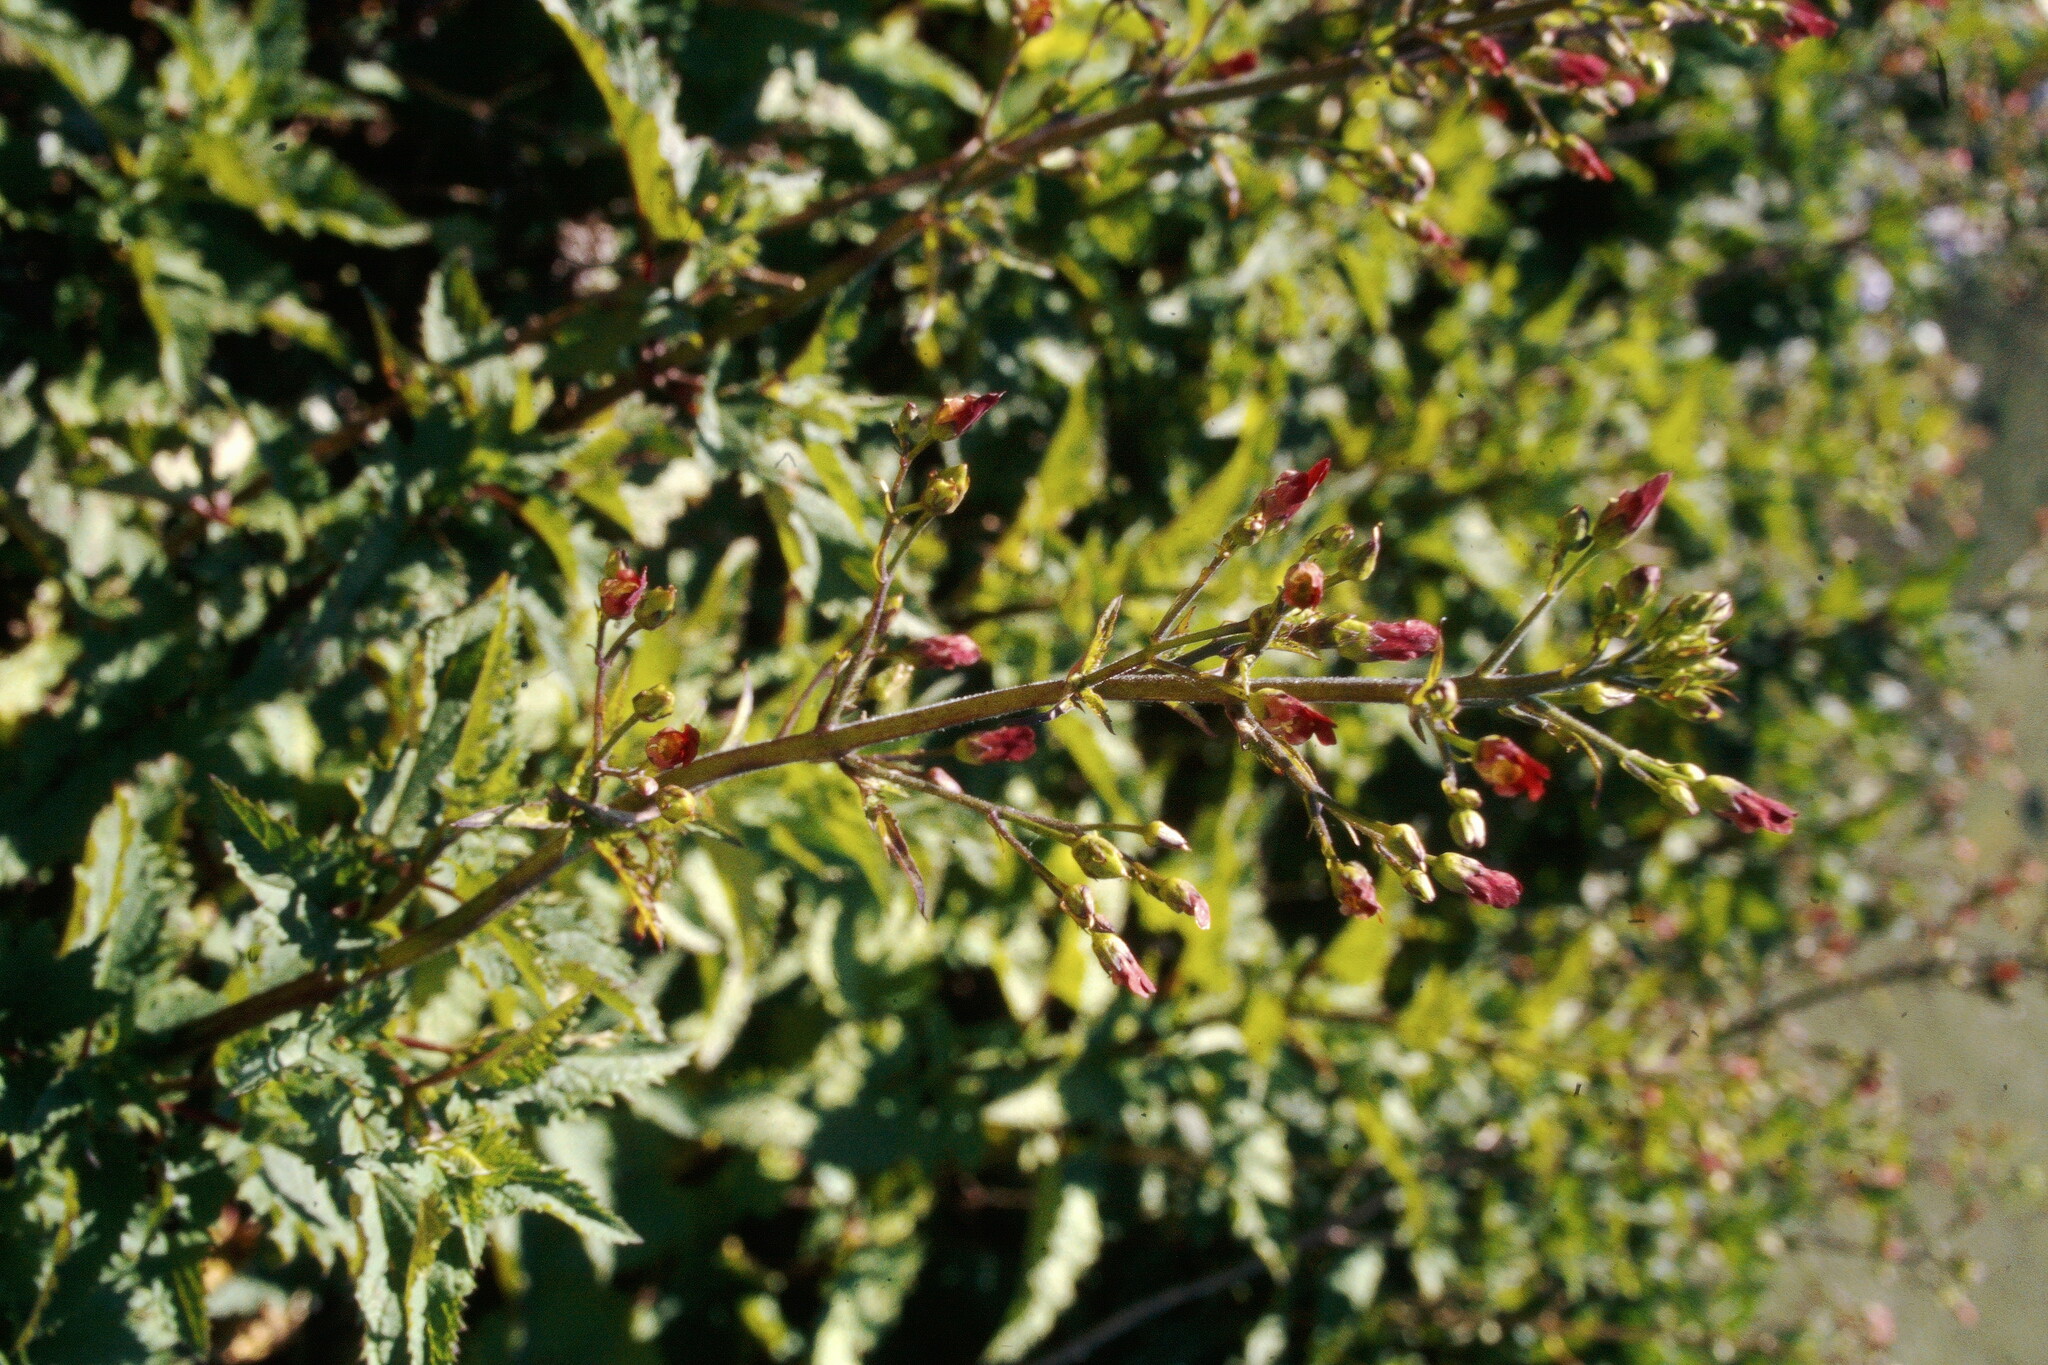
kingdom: Plantae
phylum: Tracheophyta
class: Magnoliopsida
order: Lamiales
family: Scrophulariaceae
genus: Scrophularia
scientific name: Scrophularia californica
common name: California figwort
